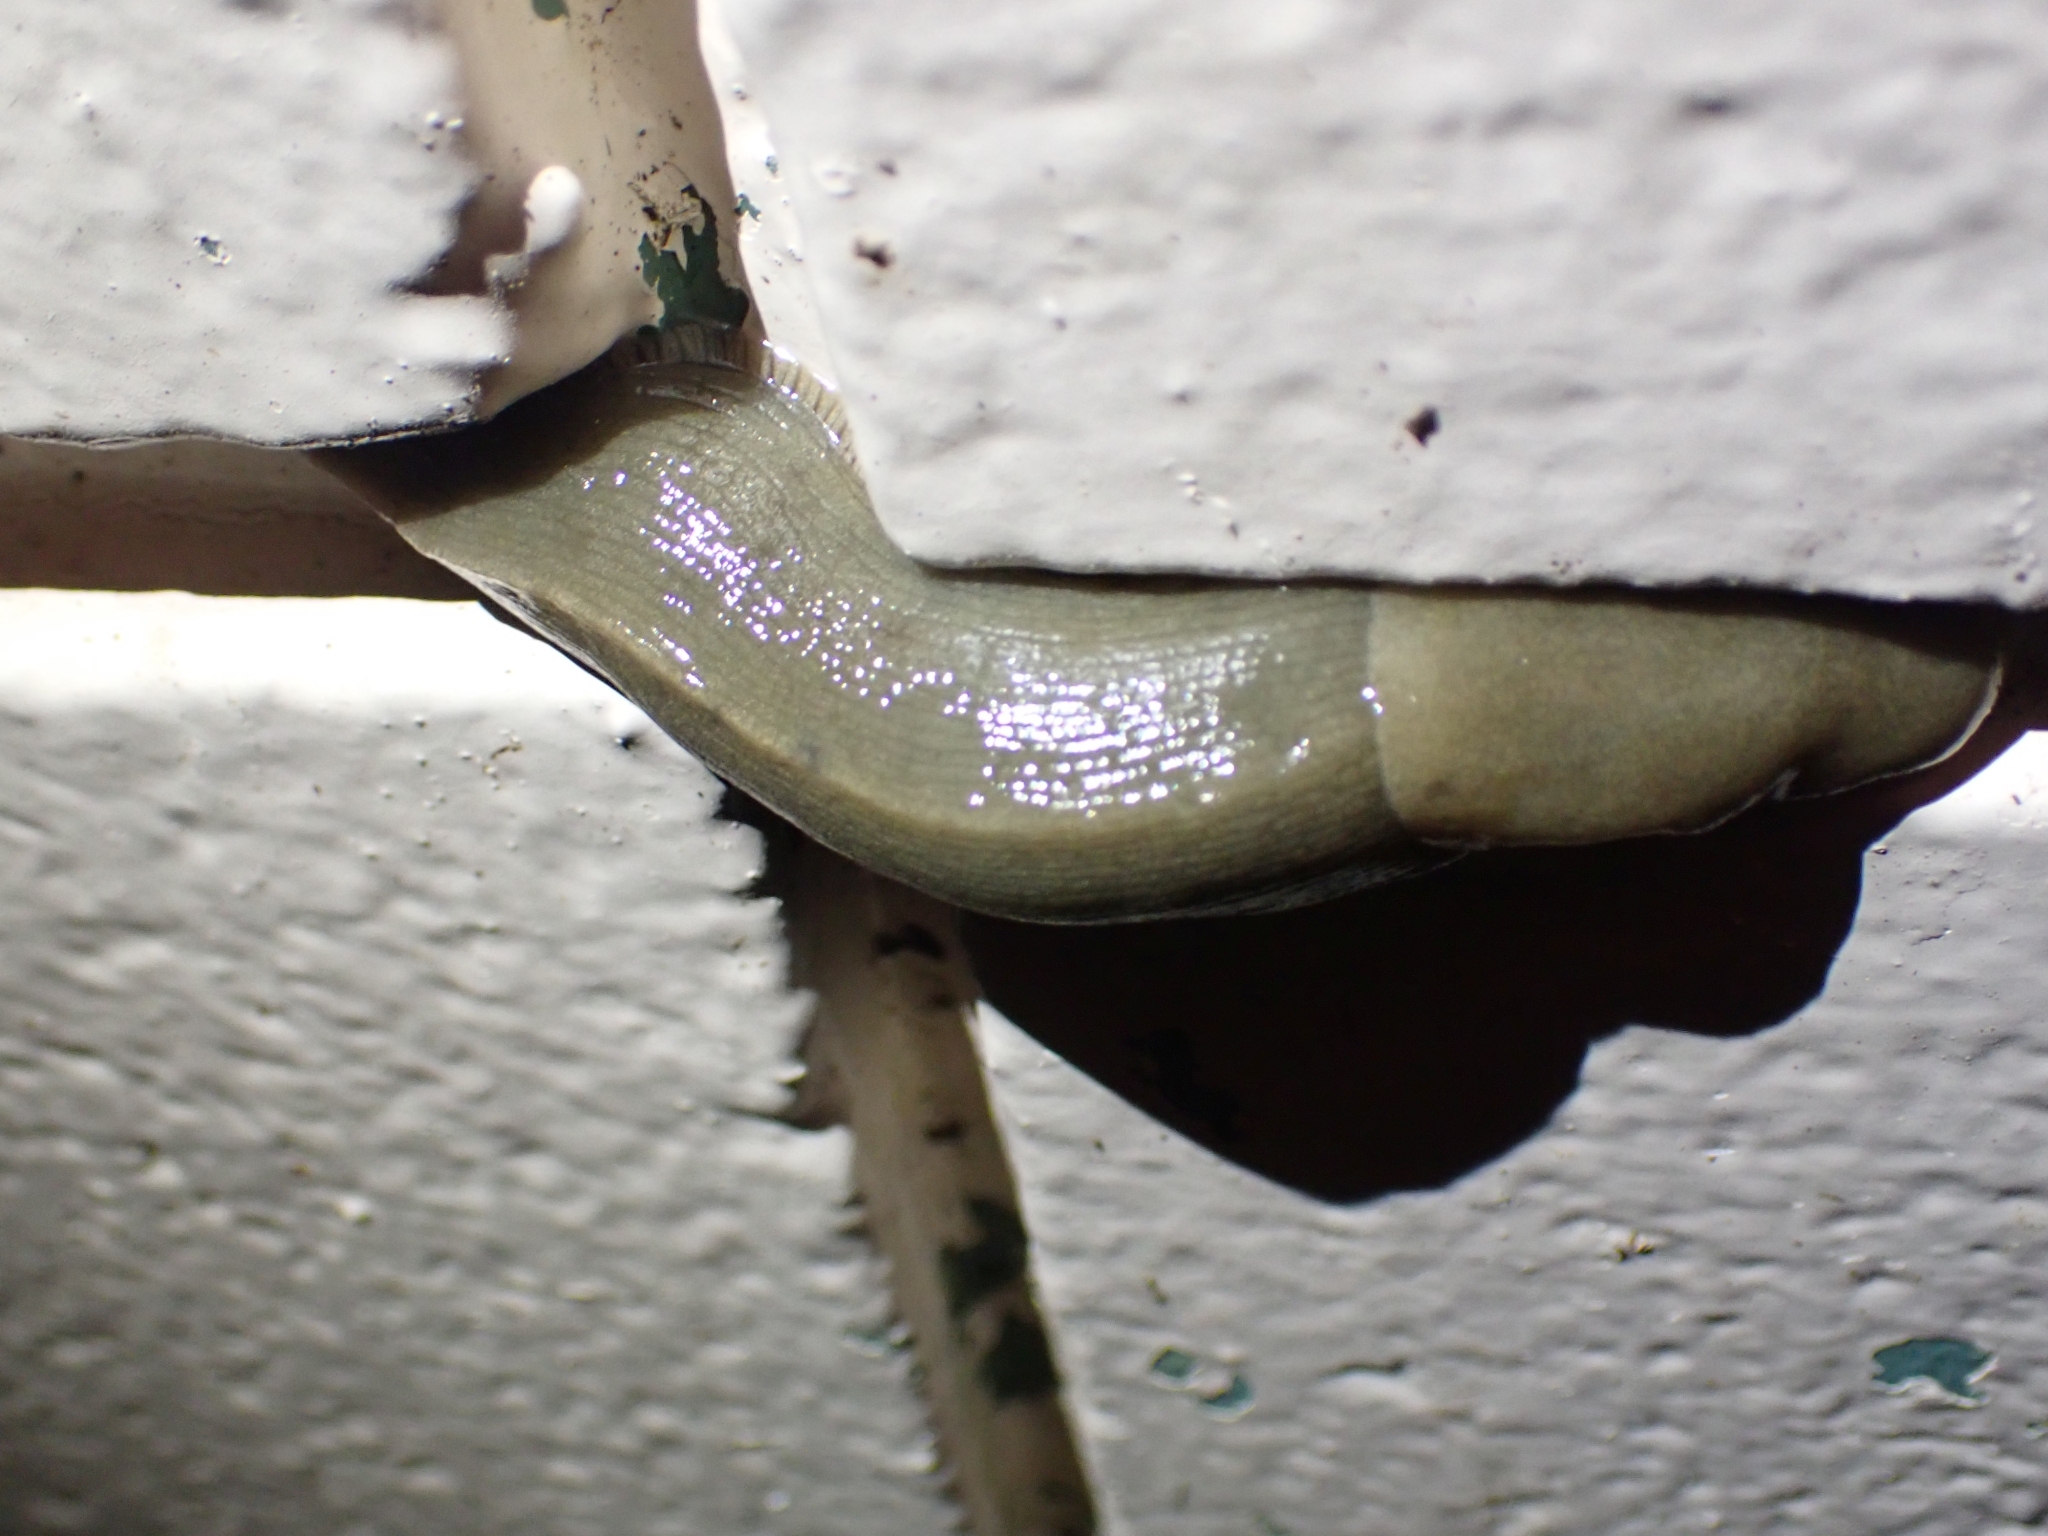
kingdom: Animalia
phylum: Mollusca
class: Gastropoda
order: Stylommatophora
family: Ariolimacidae
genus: Ariolimax
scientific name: Ariolimax columbianus
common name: Pacific banana slug
